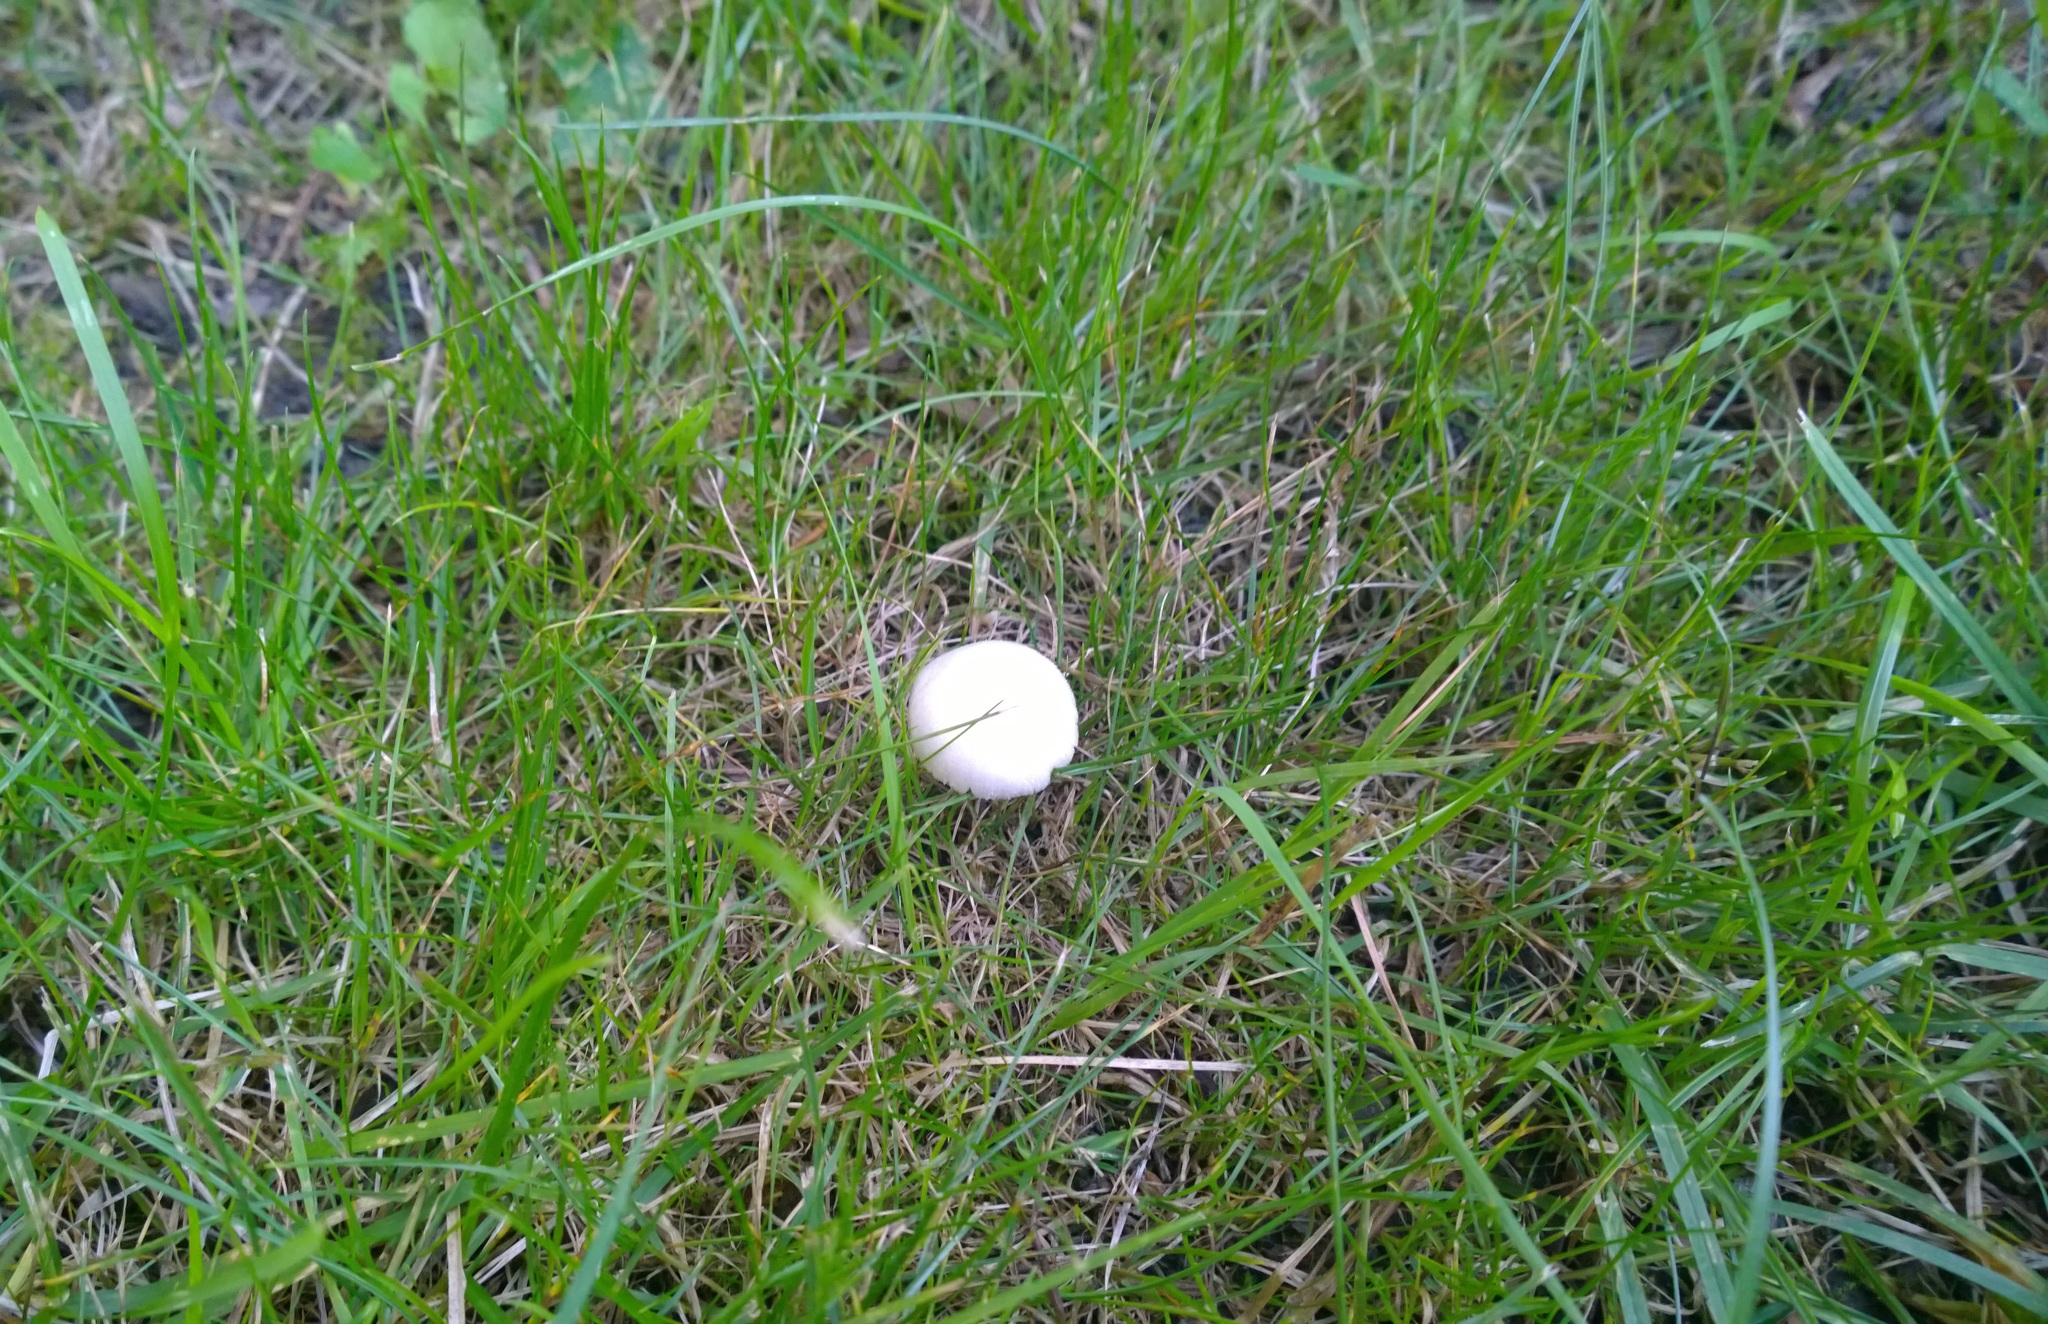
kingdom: Fungi
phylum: Basidiomycota
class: Agaricomycetes
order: Agaricales
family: Pluteaceae
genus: Volvariella
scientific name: Volvariella pusilla
